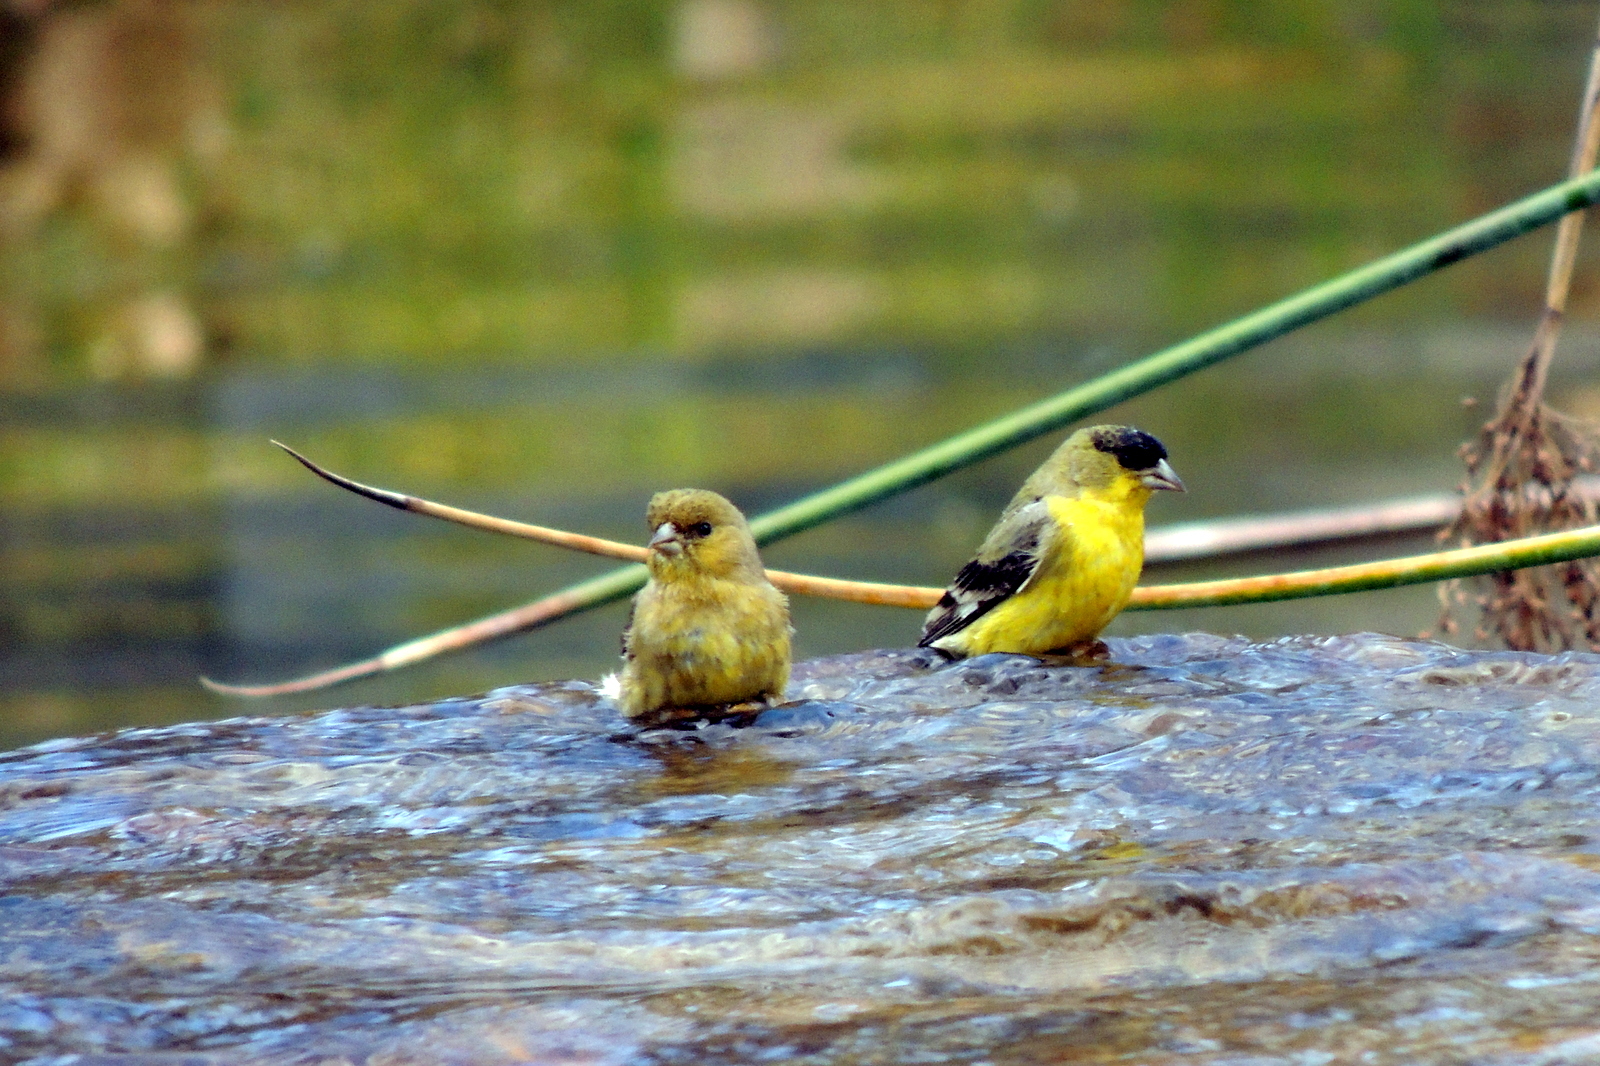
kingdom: Animalia
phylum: Chordata
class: Aves
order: Passeriformes
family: Fringillidae
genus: Spinus
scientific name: Spinus psaltria
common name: Lesser goldfinch
